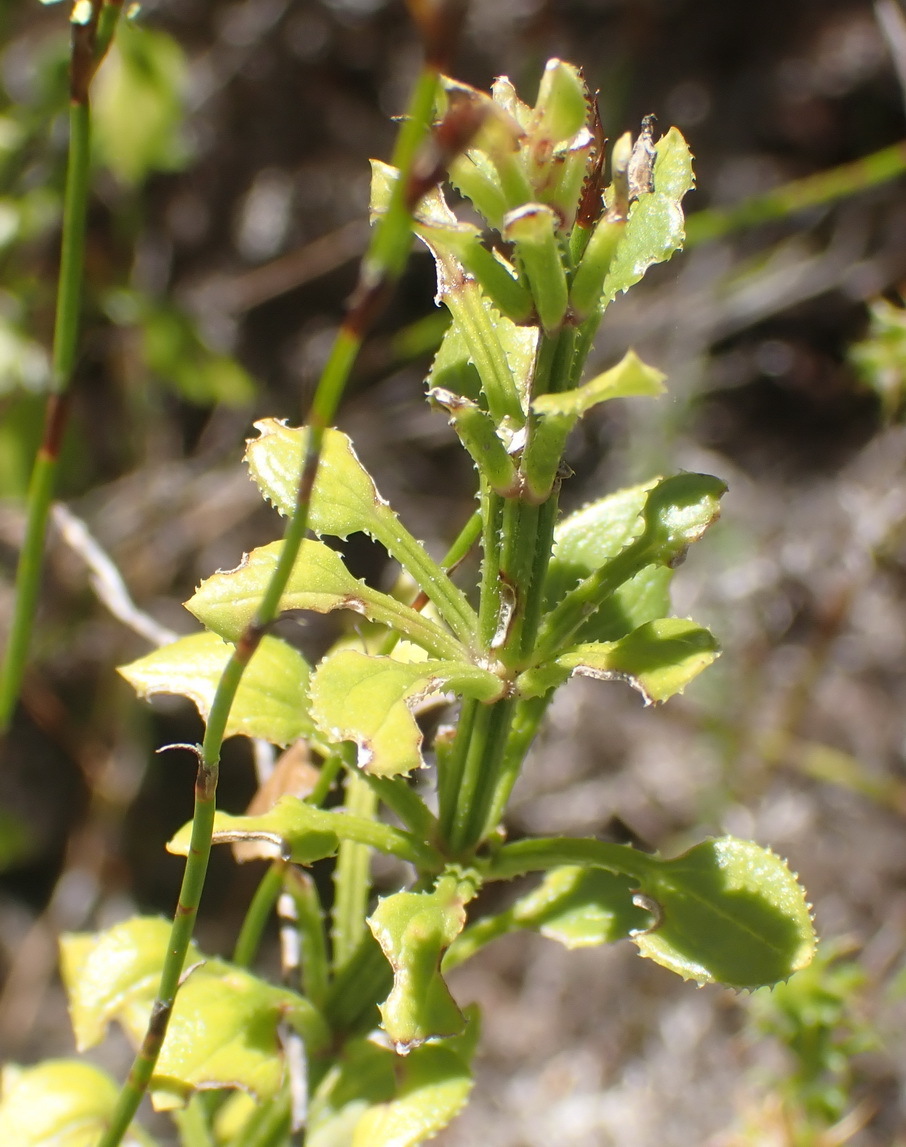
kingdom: Plantae
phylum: Tracheophyta
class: Magnoliopsida
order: Gentianales
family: Rubiaceae
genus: Rubia
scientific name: Rubia petiolaris
